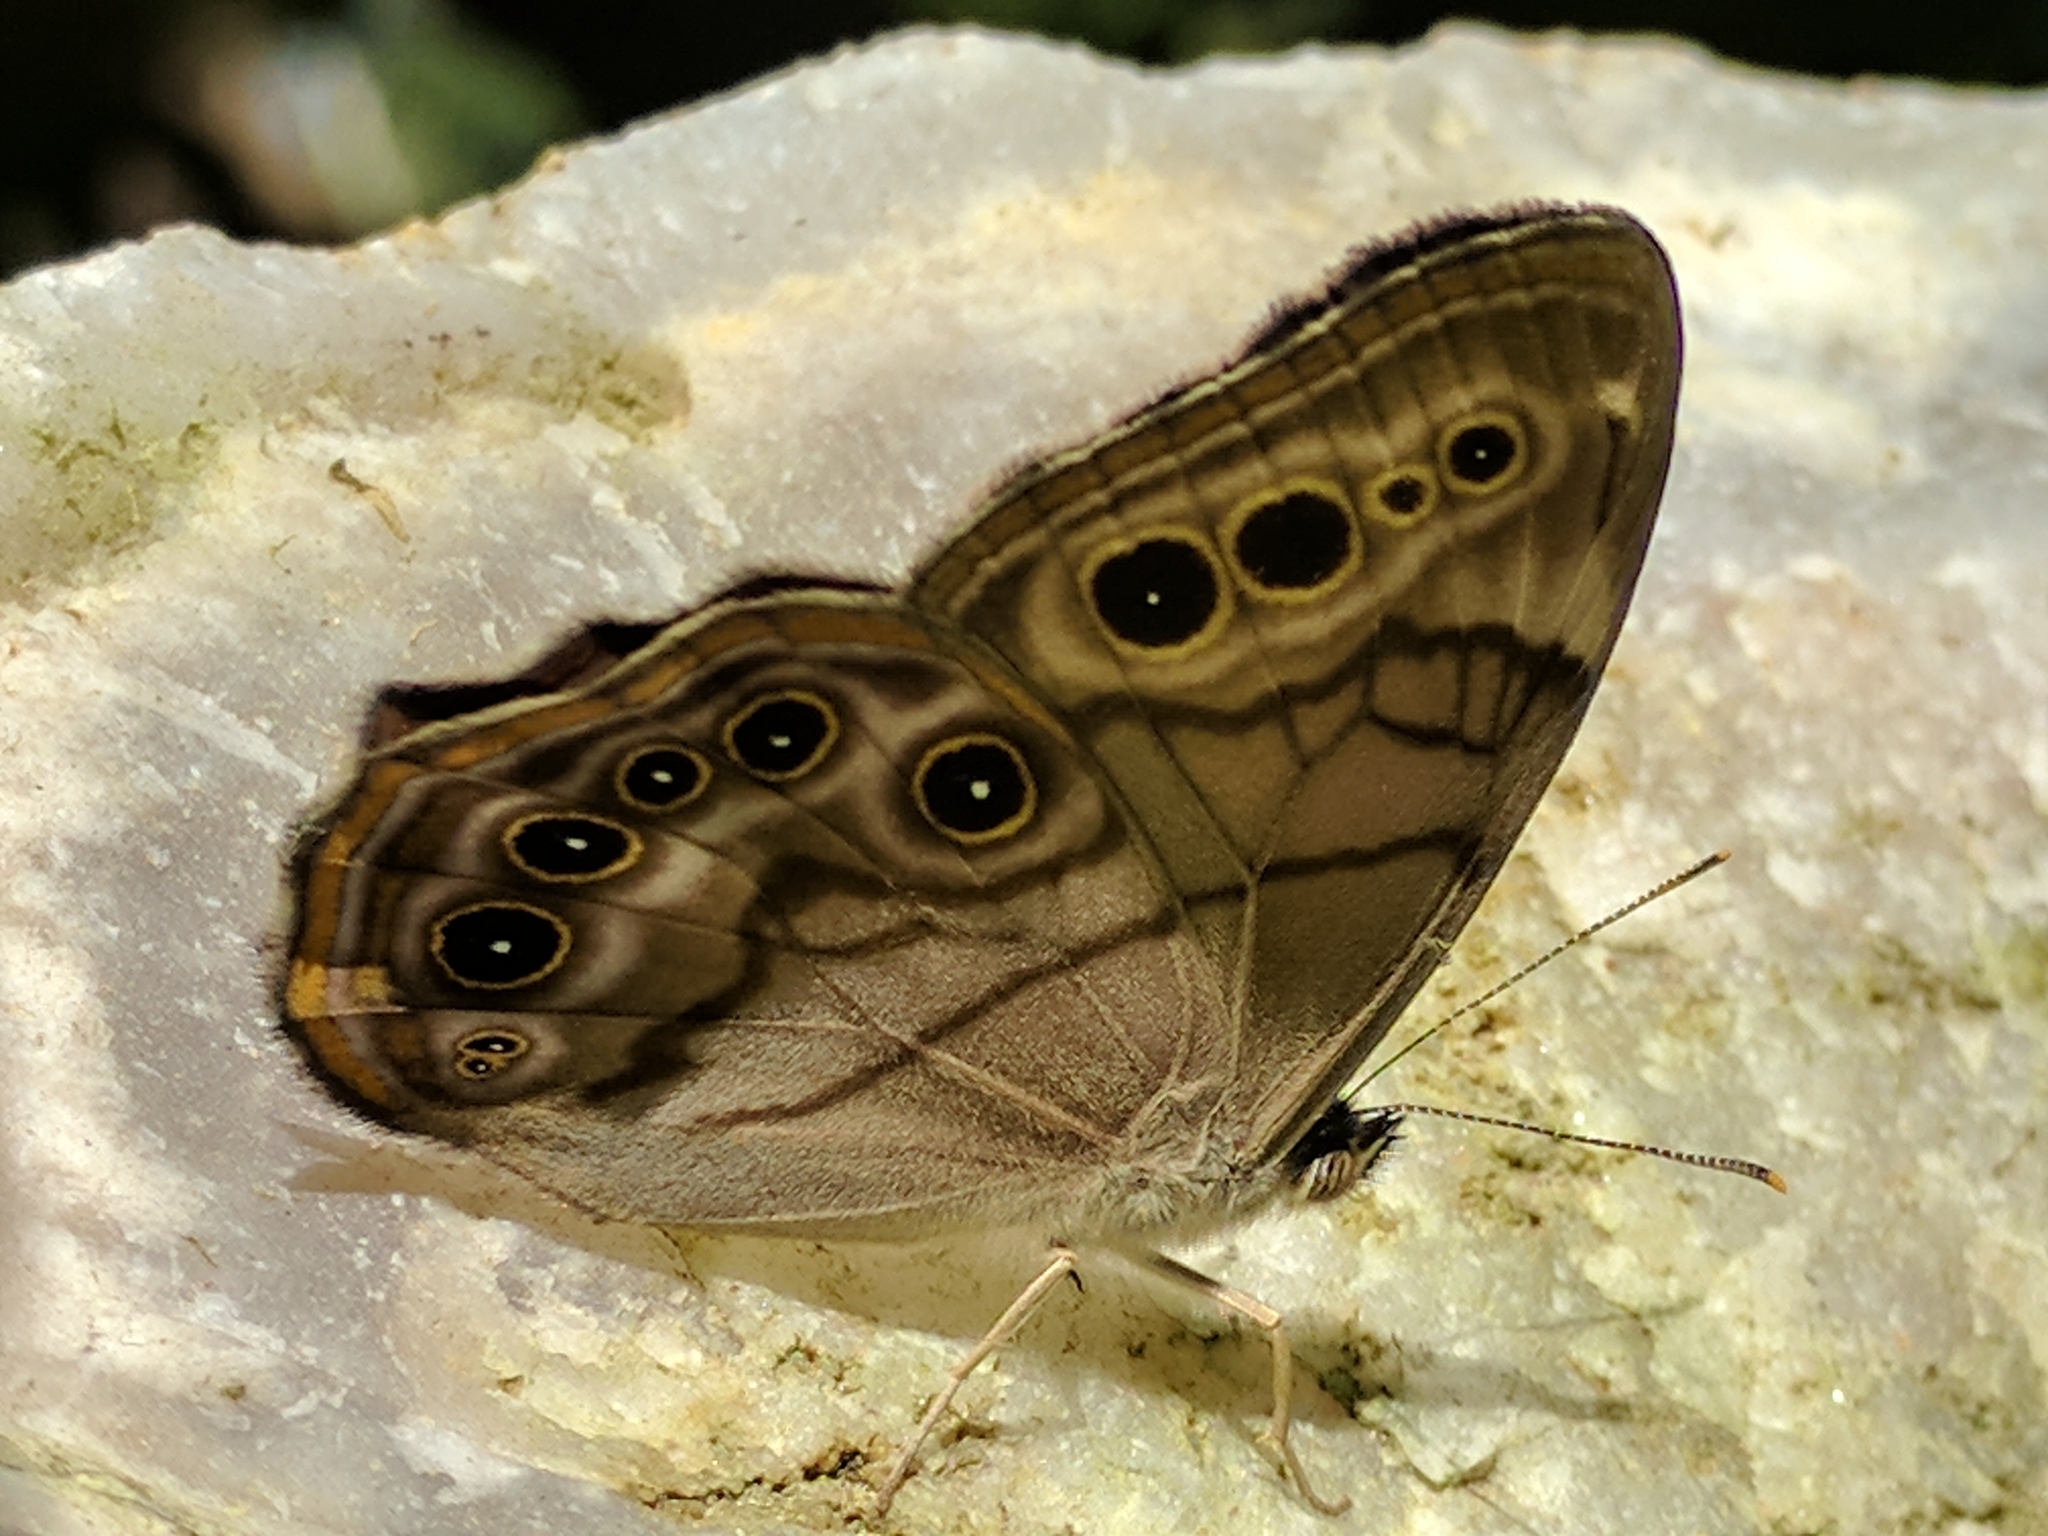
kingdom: Animalia
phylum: Arthropoda
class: Insecta
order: Lepidoptera
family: Nymphalidae
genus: Lethe
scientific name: Lethe anthedon
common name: Northern pearly-eye
